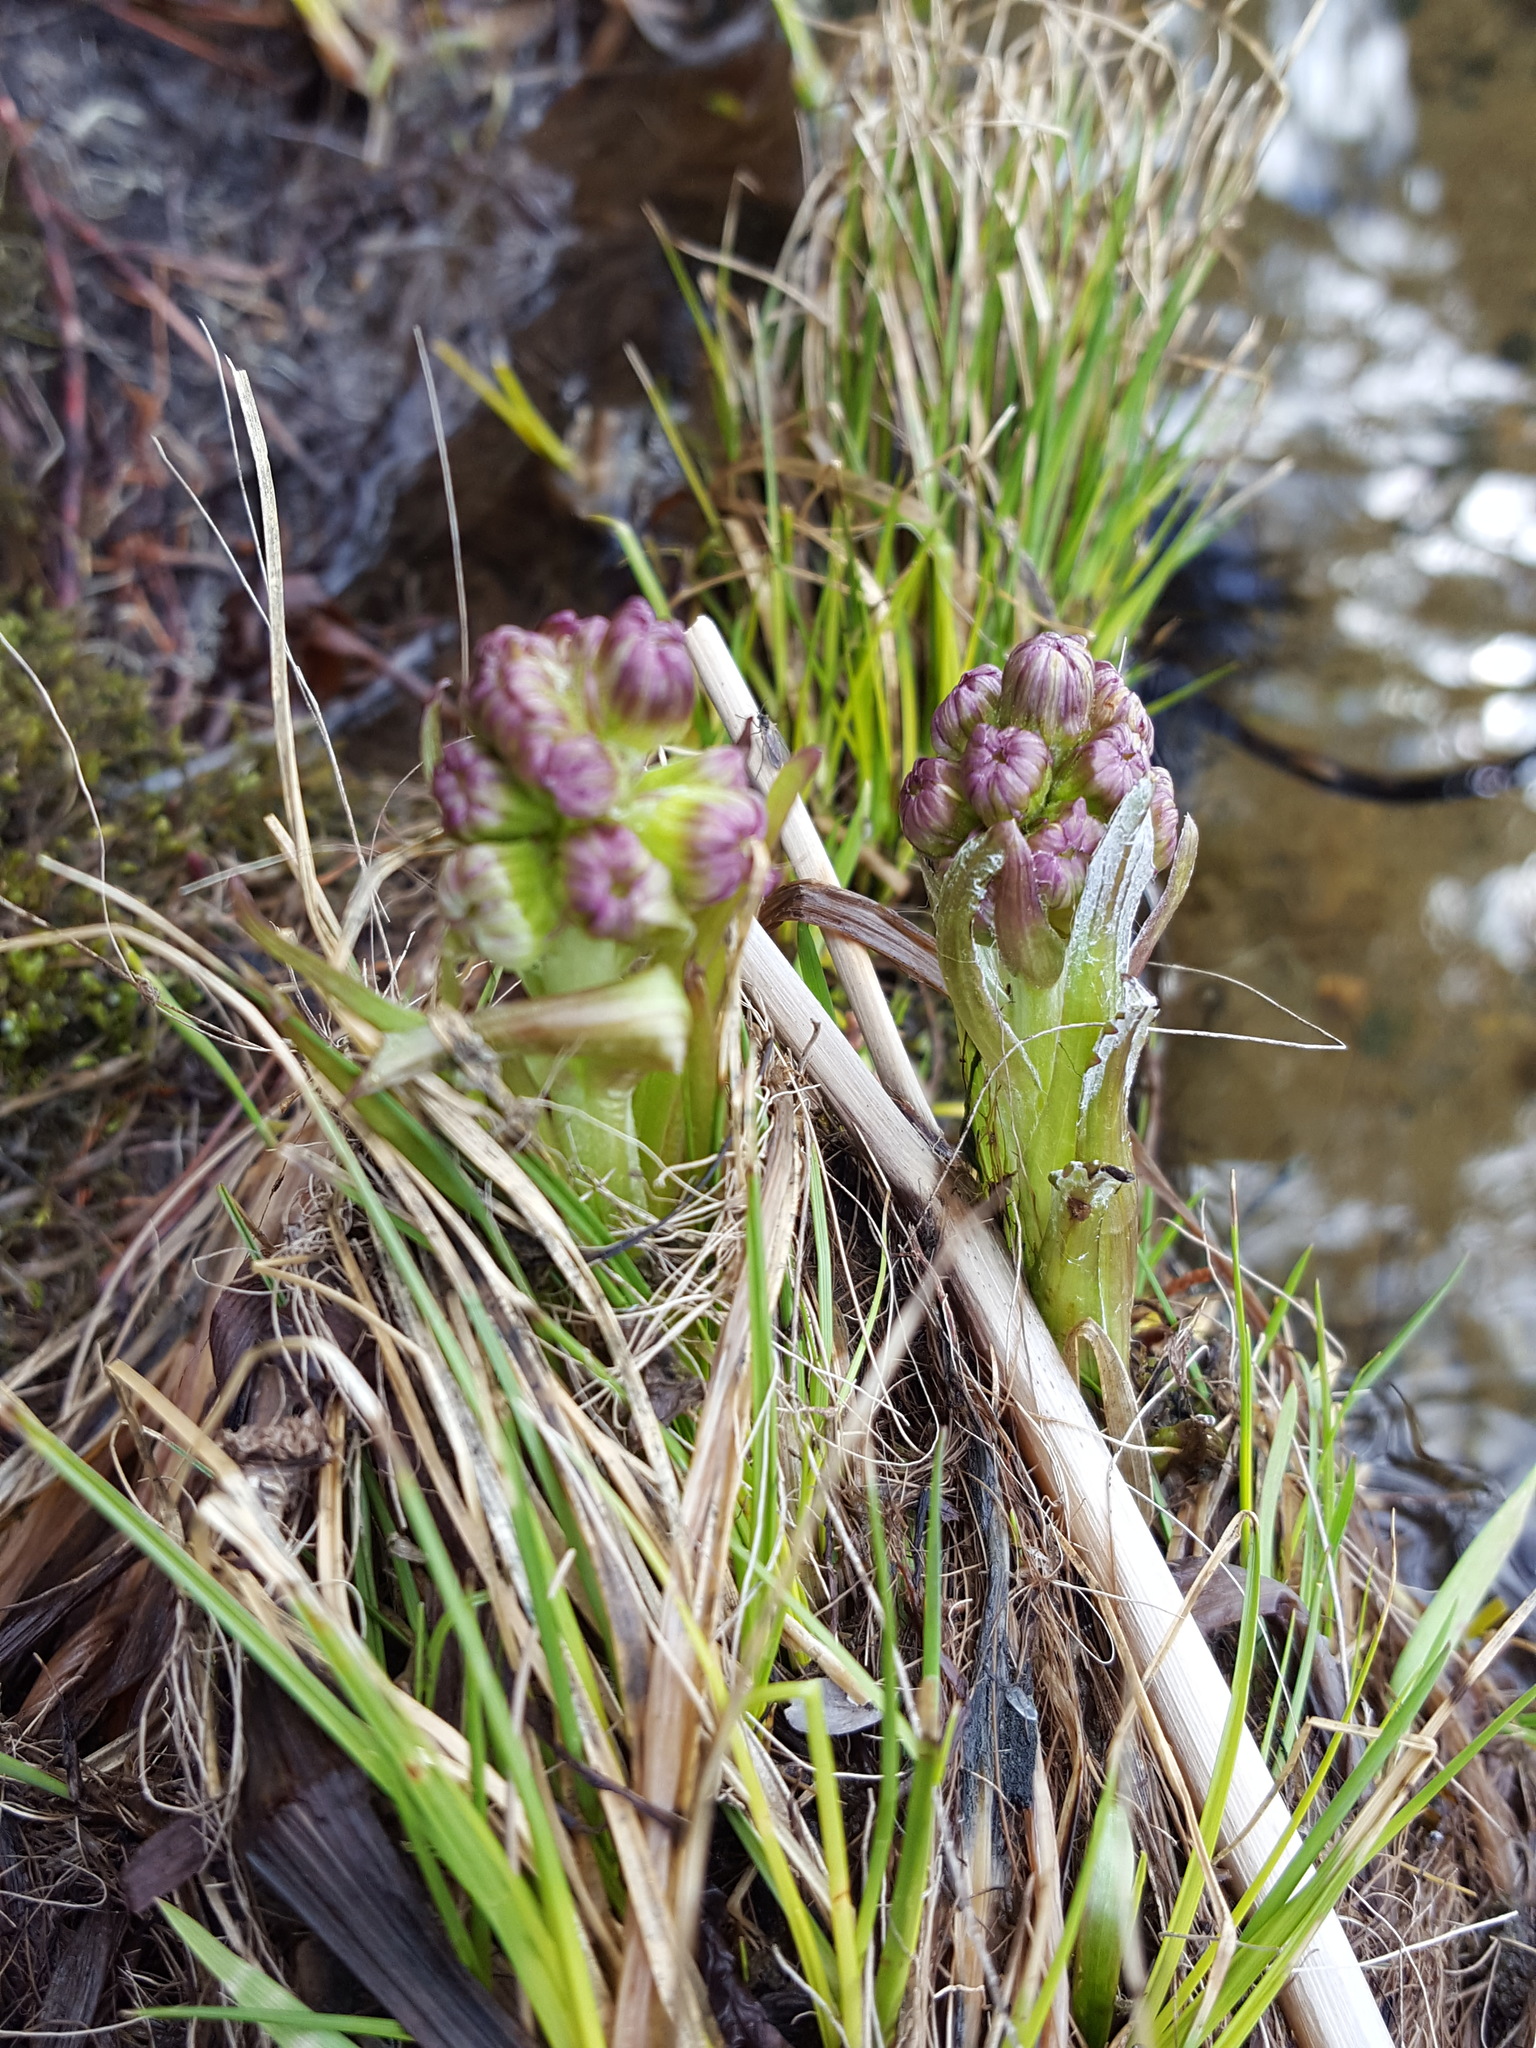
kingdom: Plantae
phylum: Tracheophyta
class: Magnoliopsida
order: Asterales
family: Asteraceae
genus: Petasites
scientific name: Petasites frigidus
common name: Arctic butterbur
